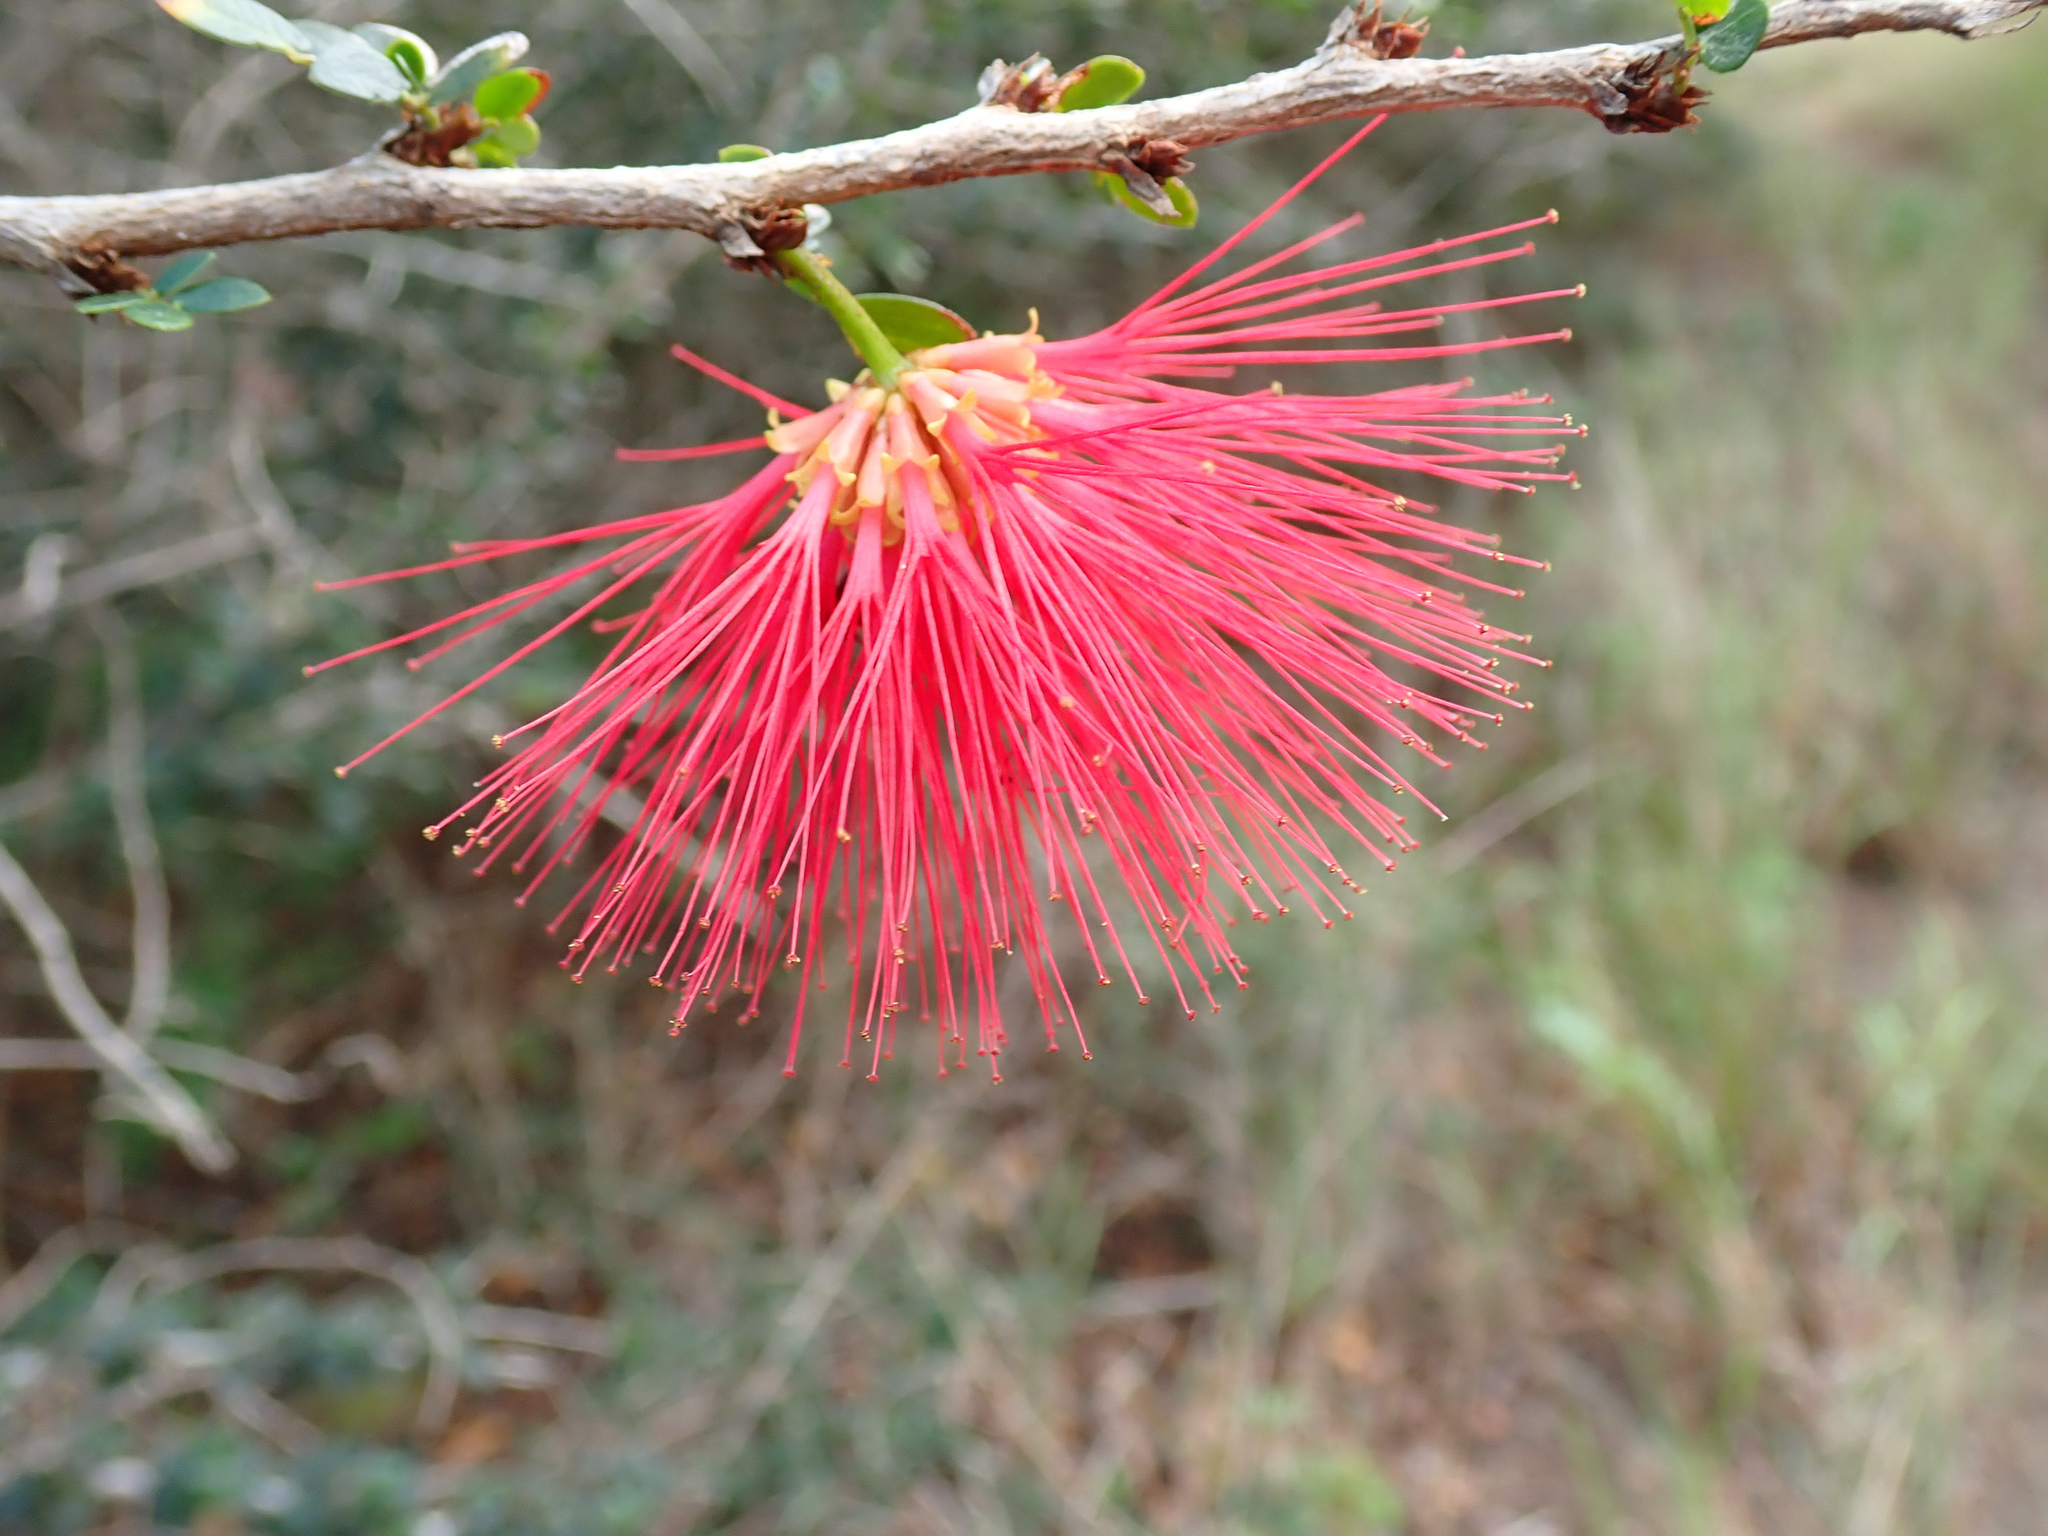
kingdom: Plantae
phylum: Tracheophyta
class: Magnoliopsida
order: Fabales
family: Fabaceae
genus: Calliandra
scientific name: Calliandra purpurea
